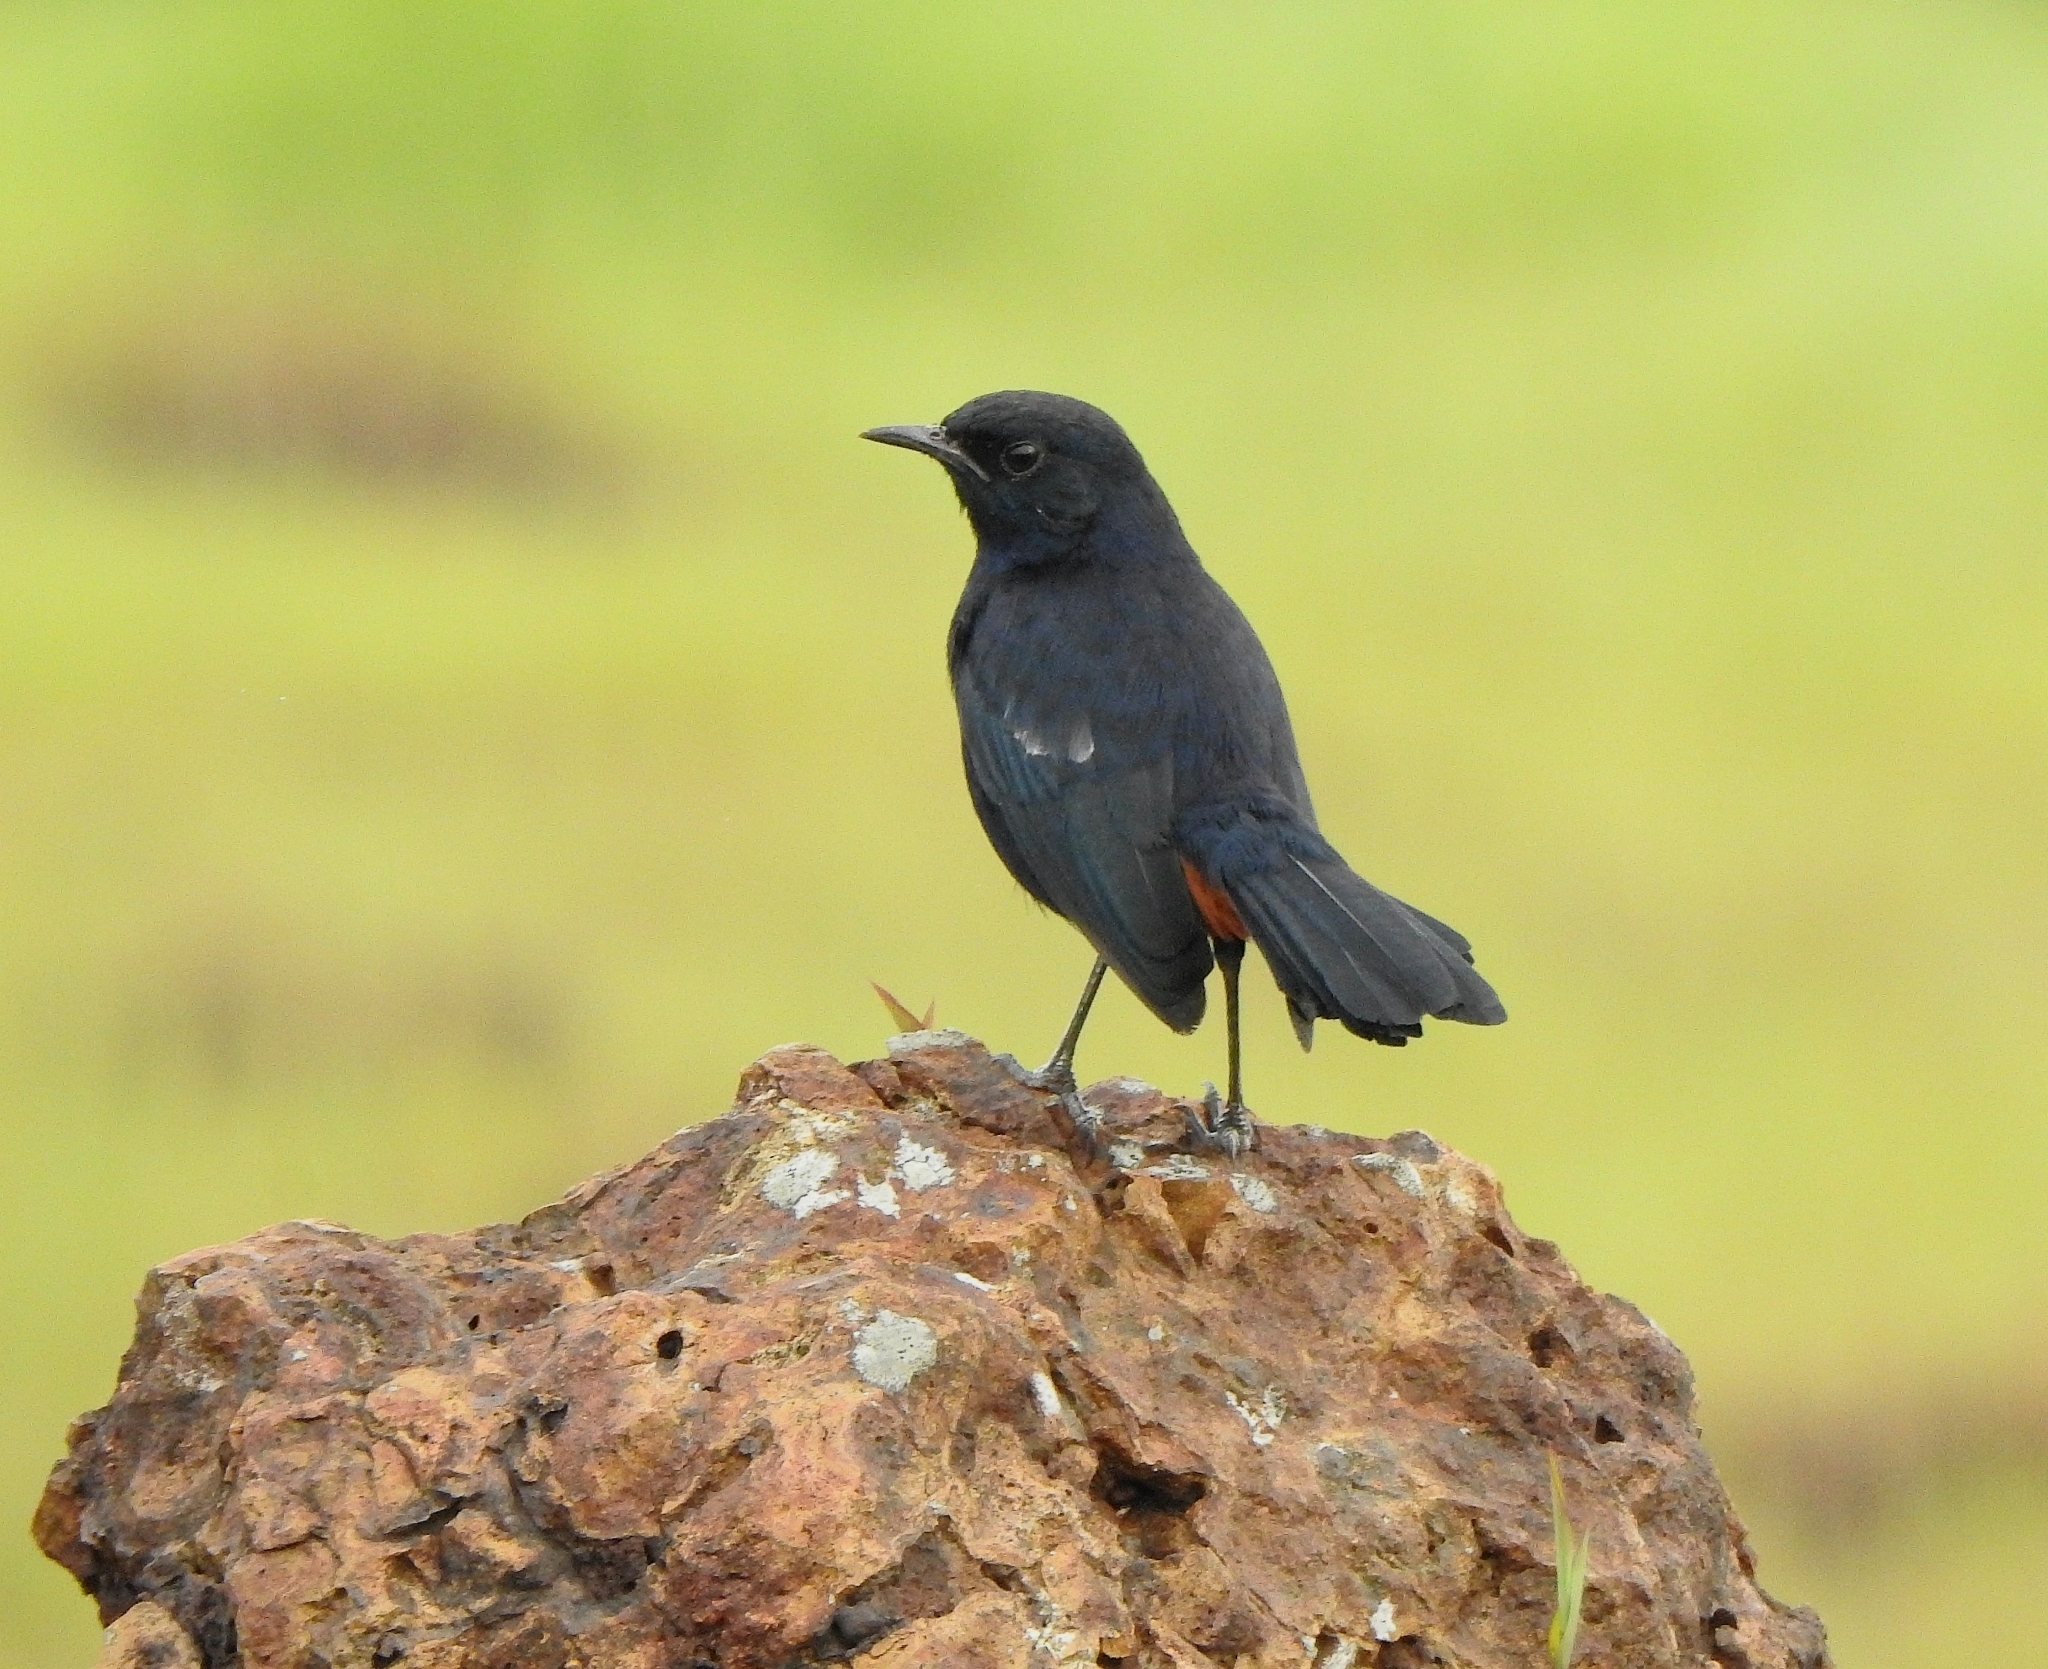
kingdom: Animalia
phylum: Chordata
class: Aves
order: Passeriformes
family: Muscicapidae
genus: Saxicoloides
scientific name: Saxicoloides fulicatus
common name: Indian robin
